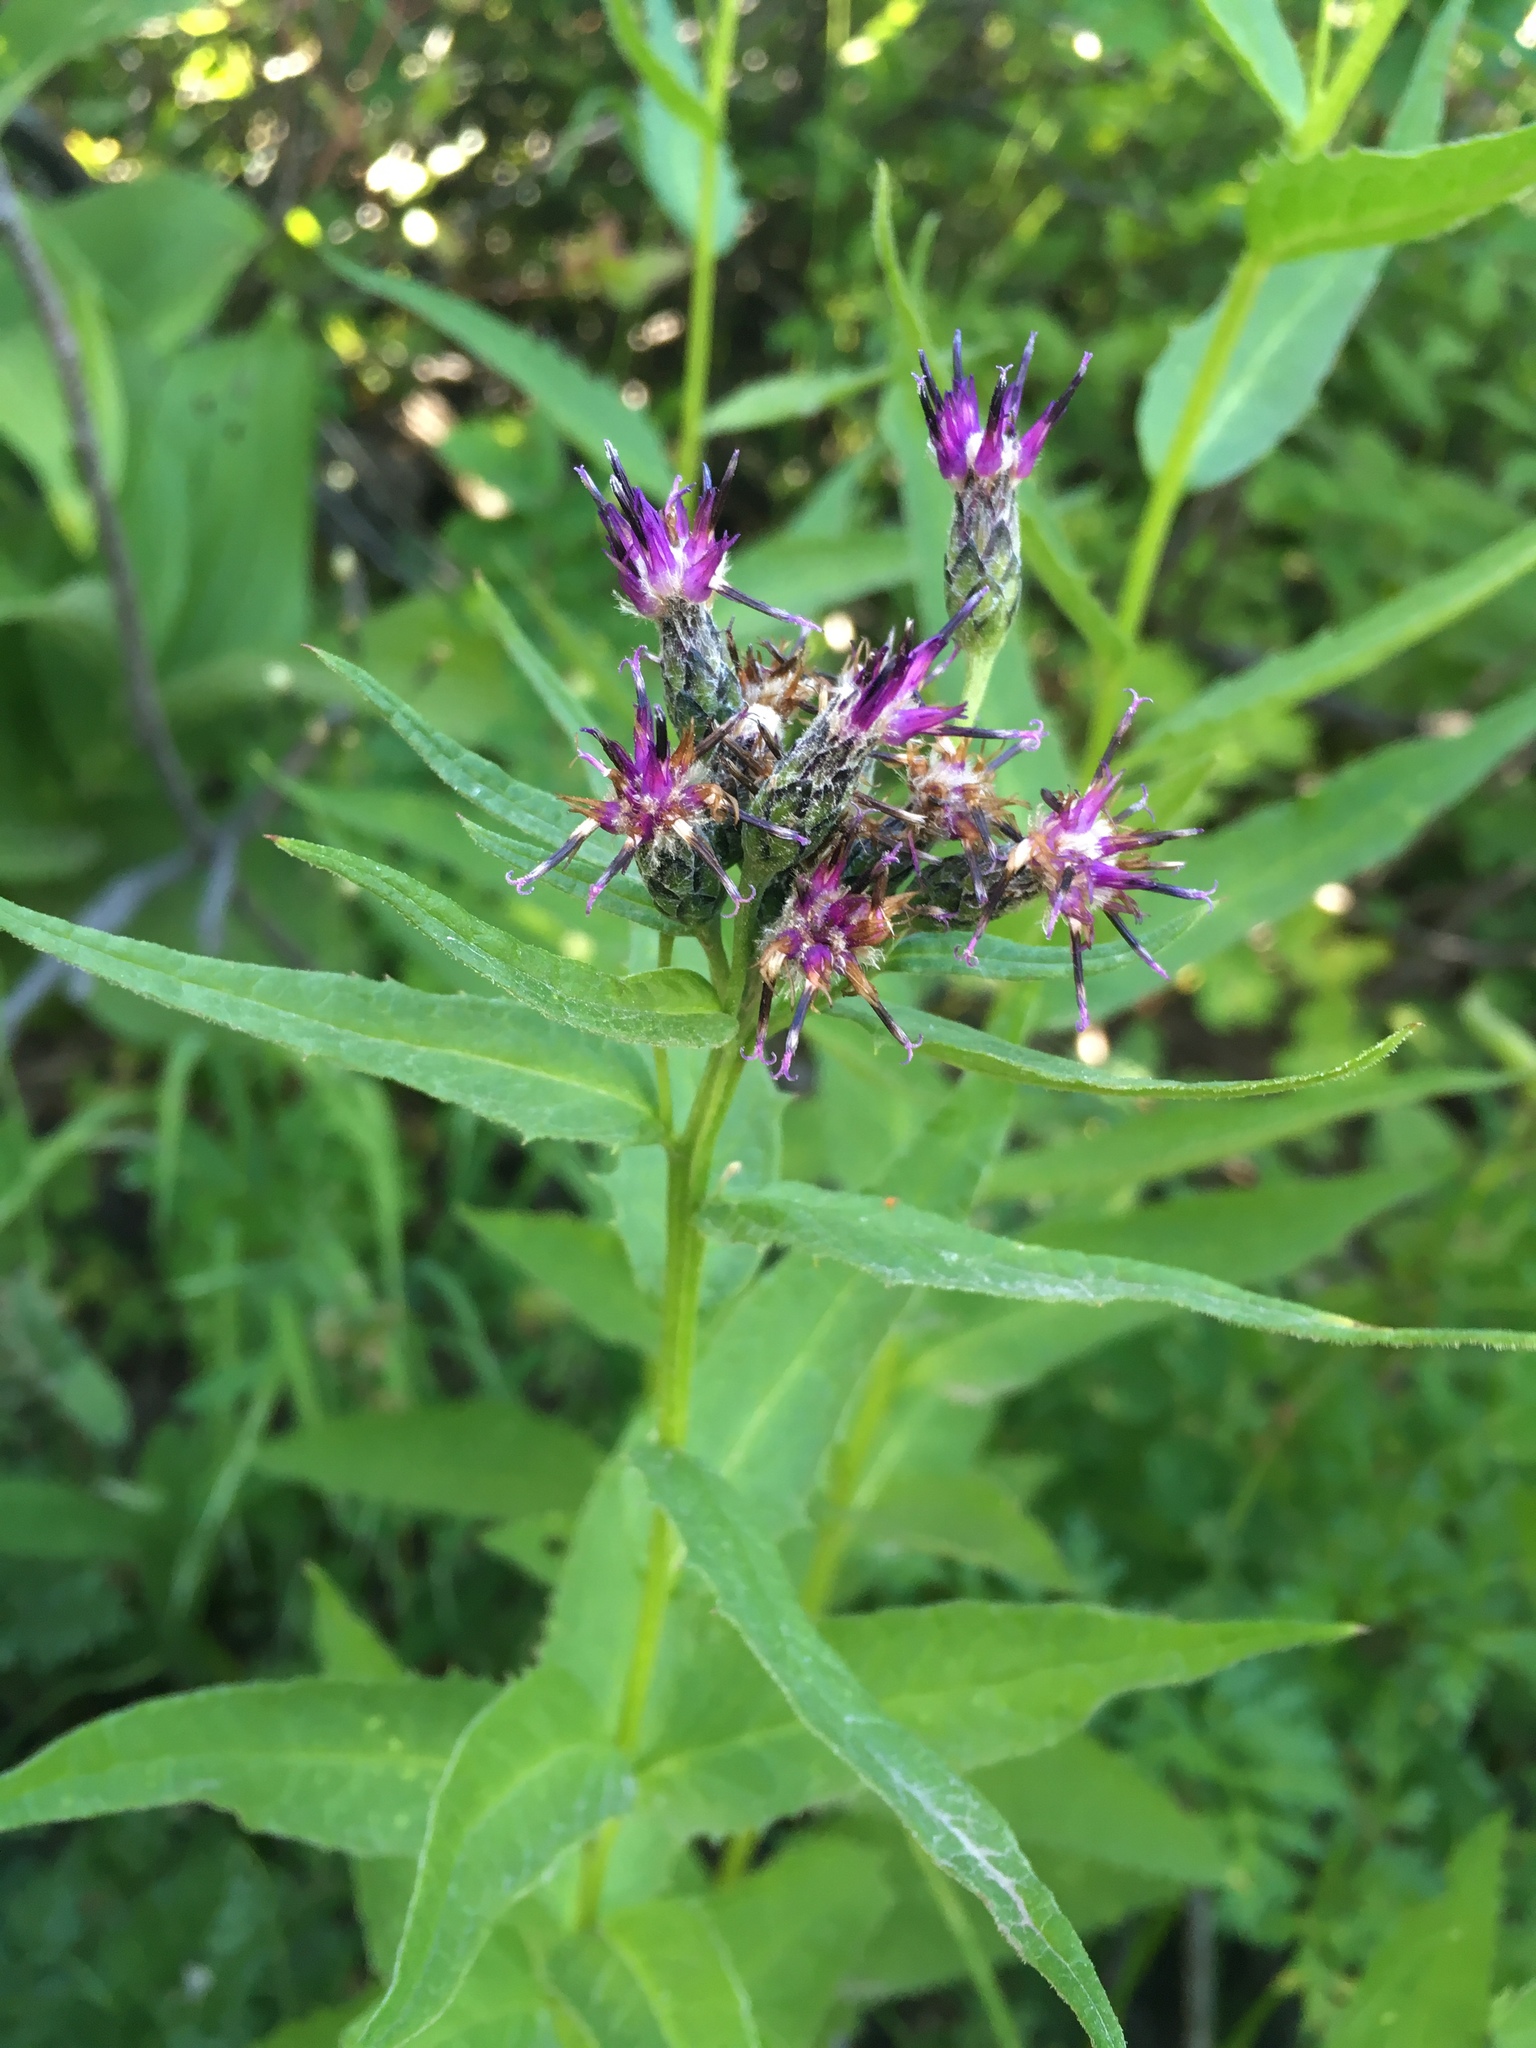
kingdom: Plantae
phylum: Tracheophyta
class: Magnoliopsida
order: Asterales
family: Asteraceae
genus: Saussurea
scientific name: Saussurea americana
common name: American saw-wort
